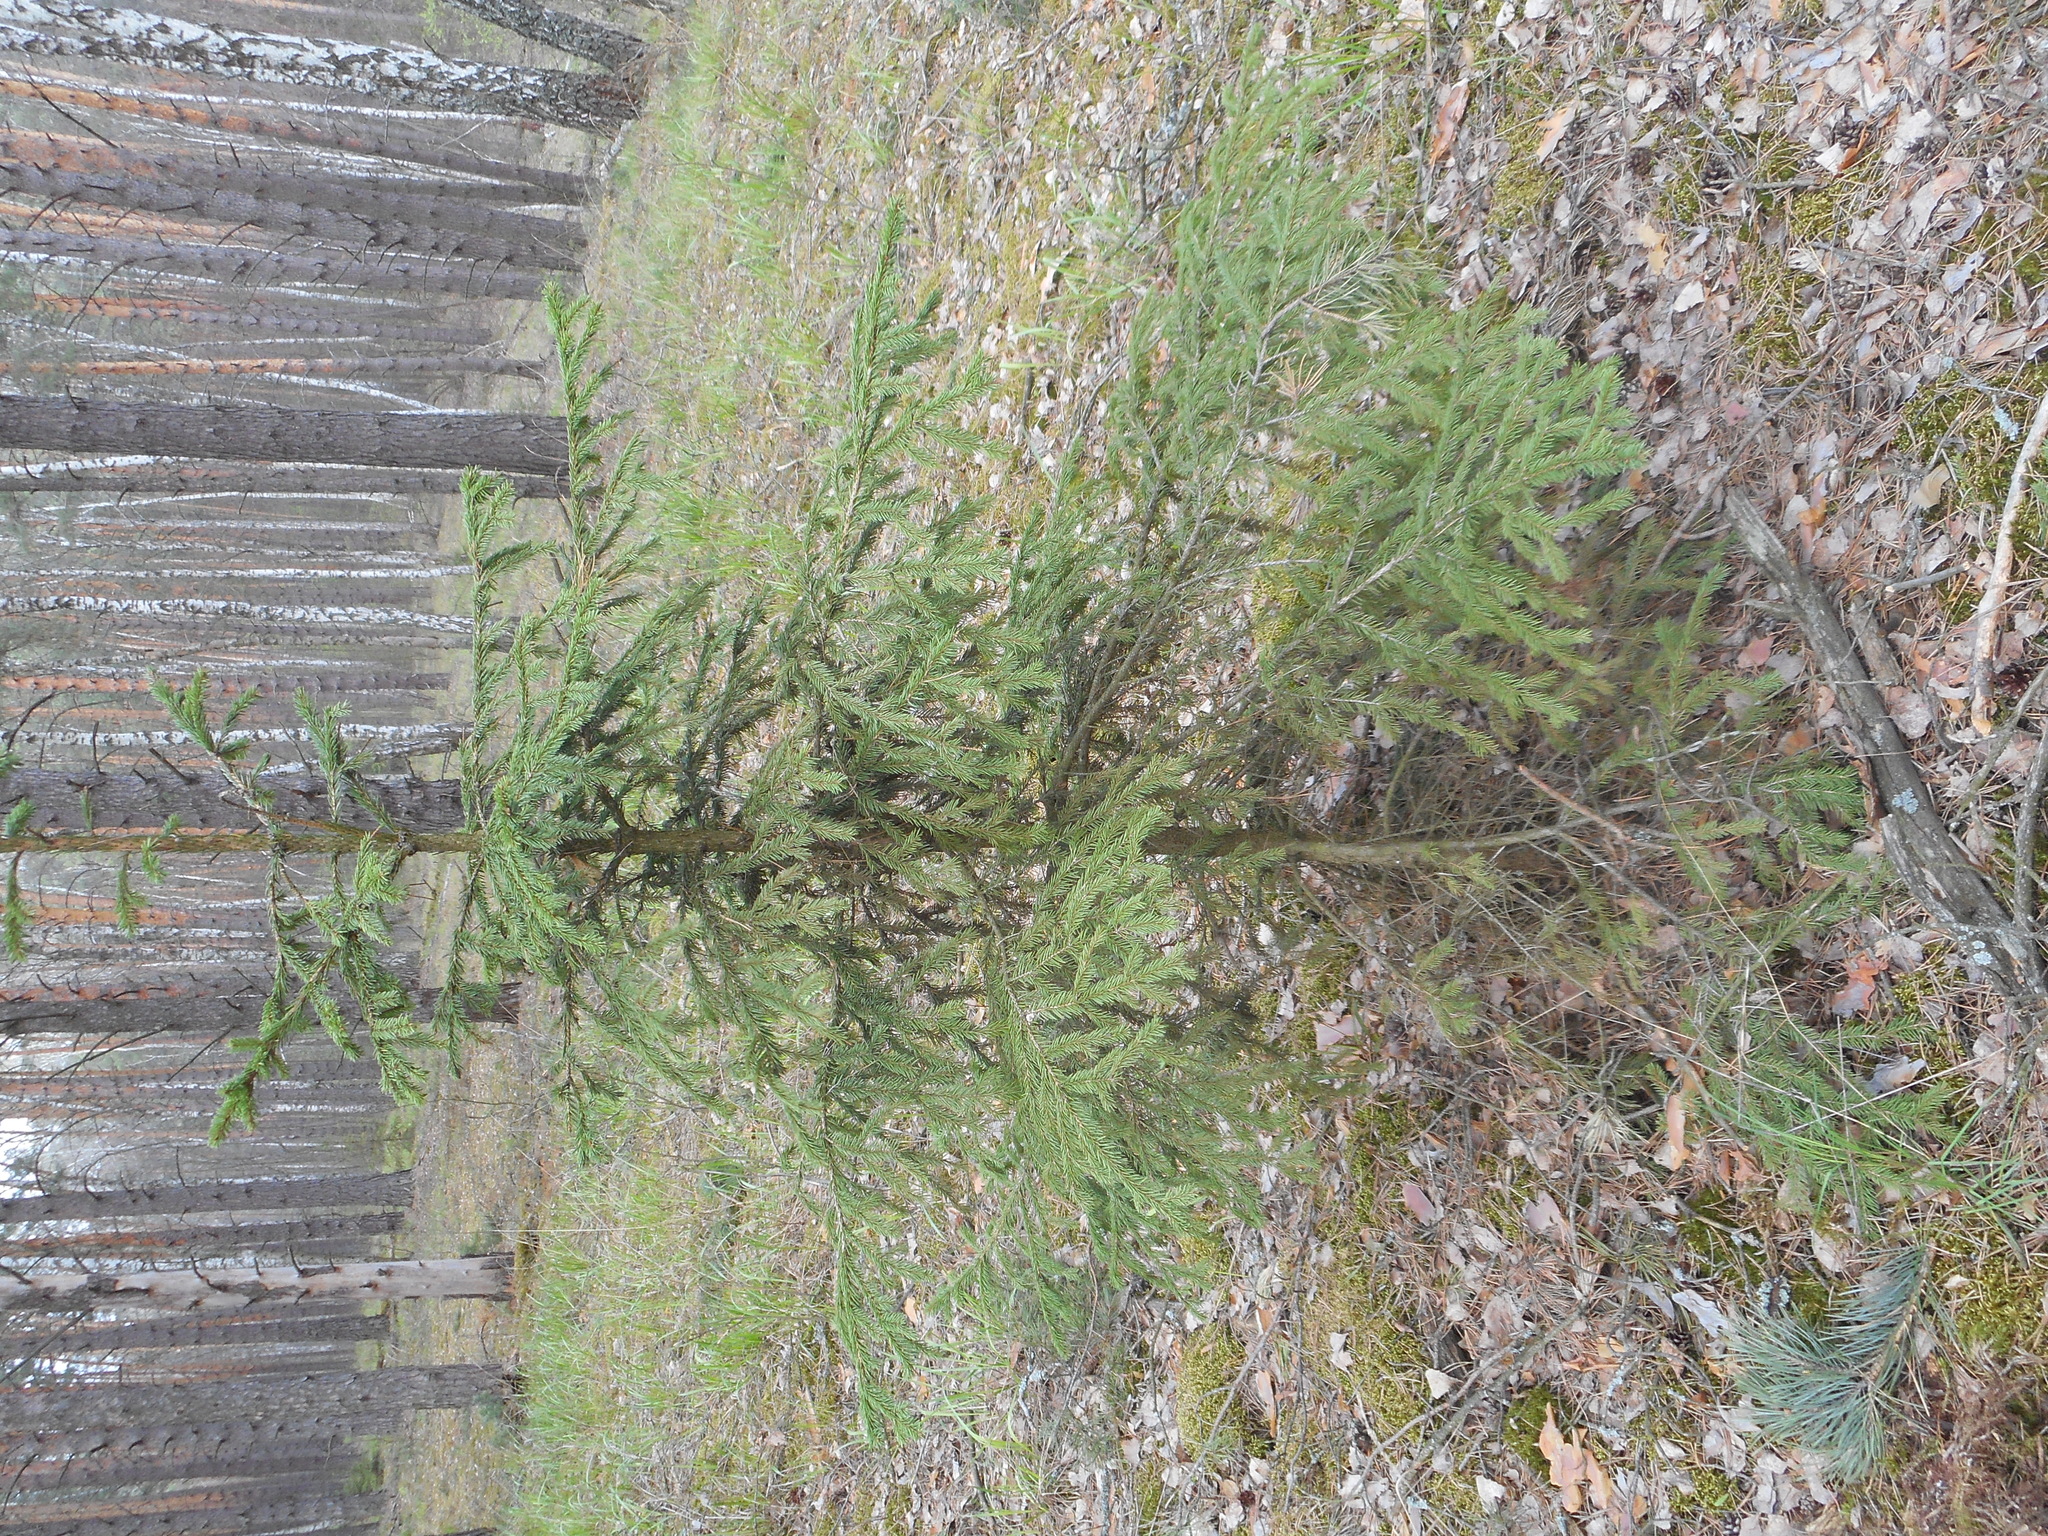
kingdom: Plantae
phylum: Tracheophyta
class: Pinopsida
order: Pinales
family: Pinaceae
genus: Picea
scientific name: Picea abies
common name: Norway spruce
